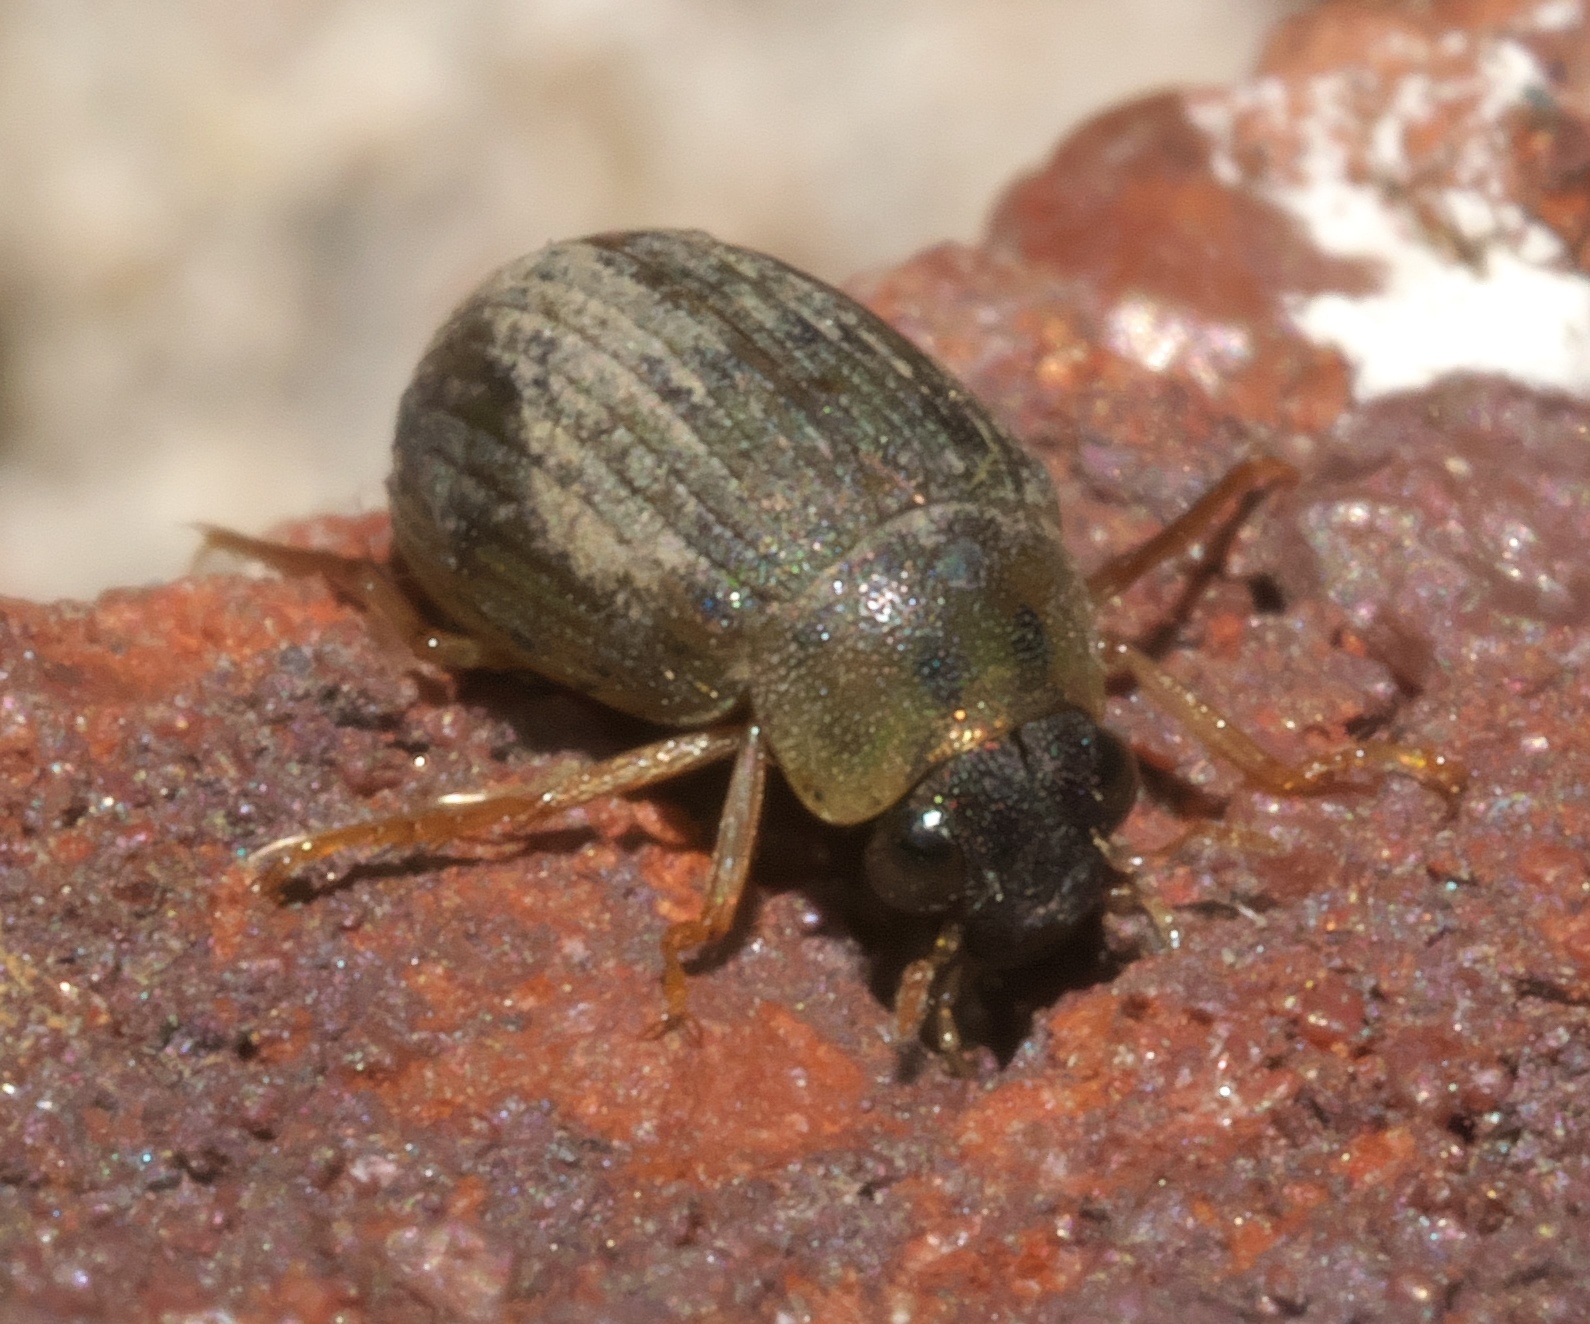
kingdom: Animalia
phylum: Arthropoda
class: Insecta
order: Coleoptera
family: Hydrophilidae
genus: Berosus
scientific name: Berosus
